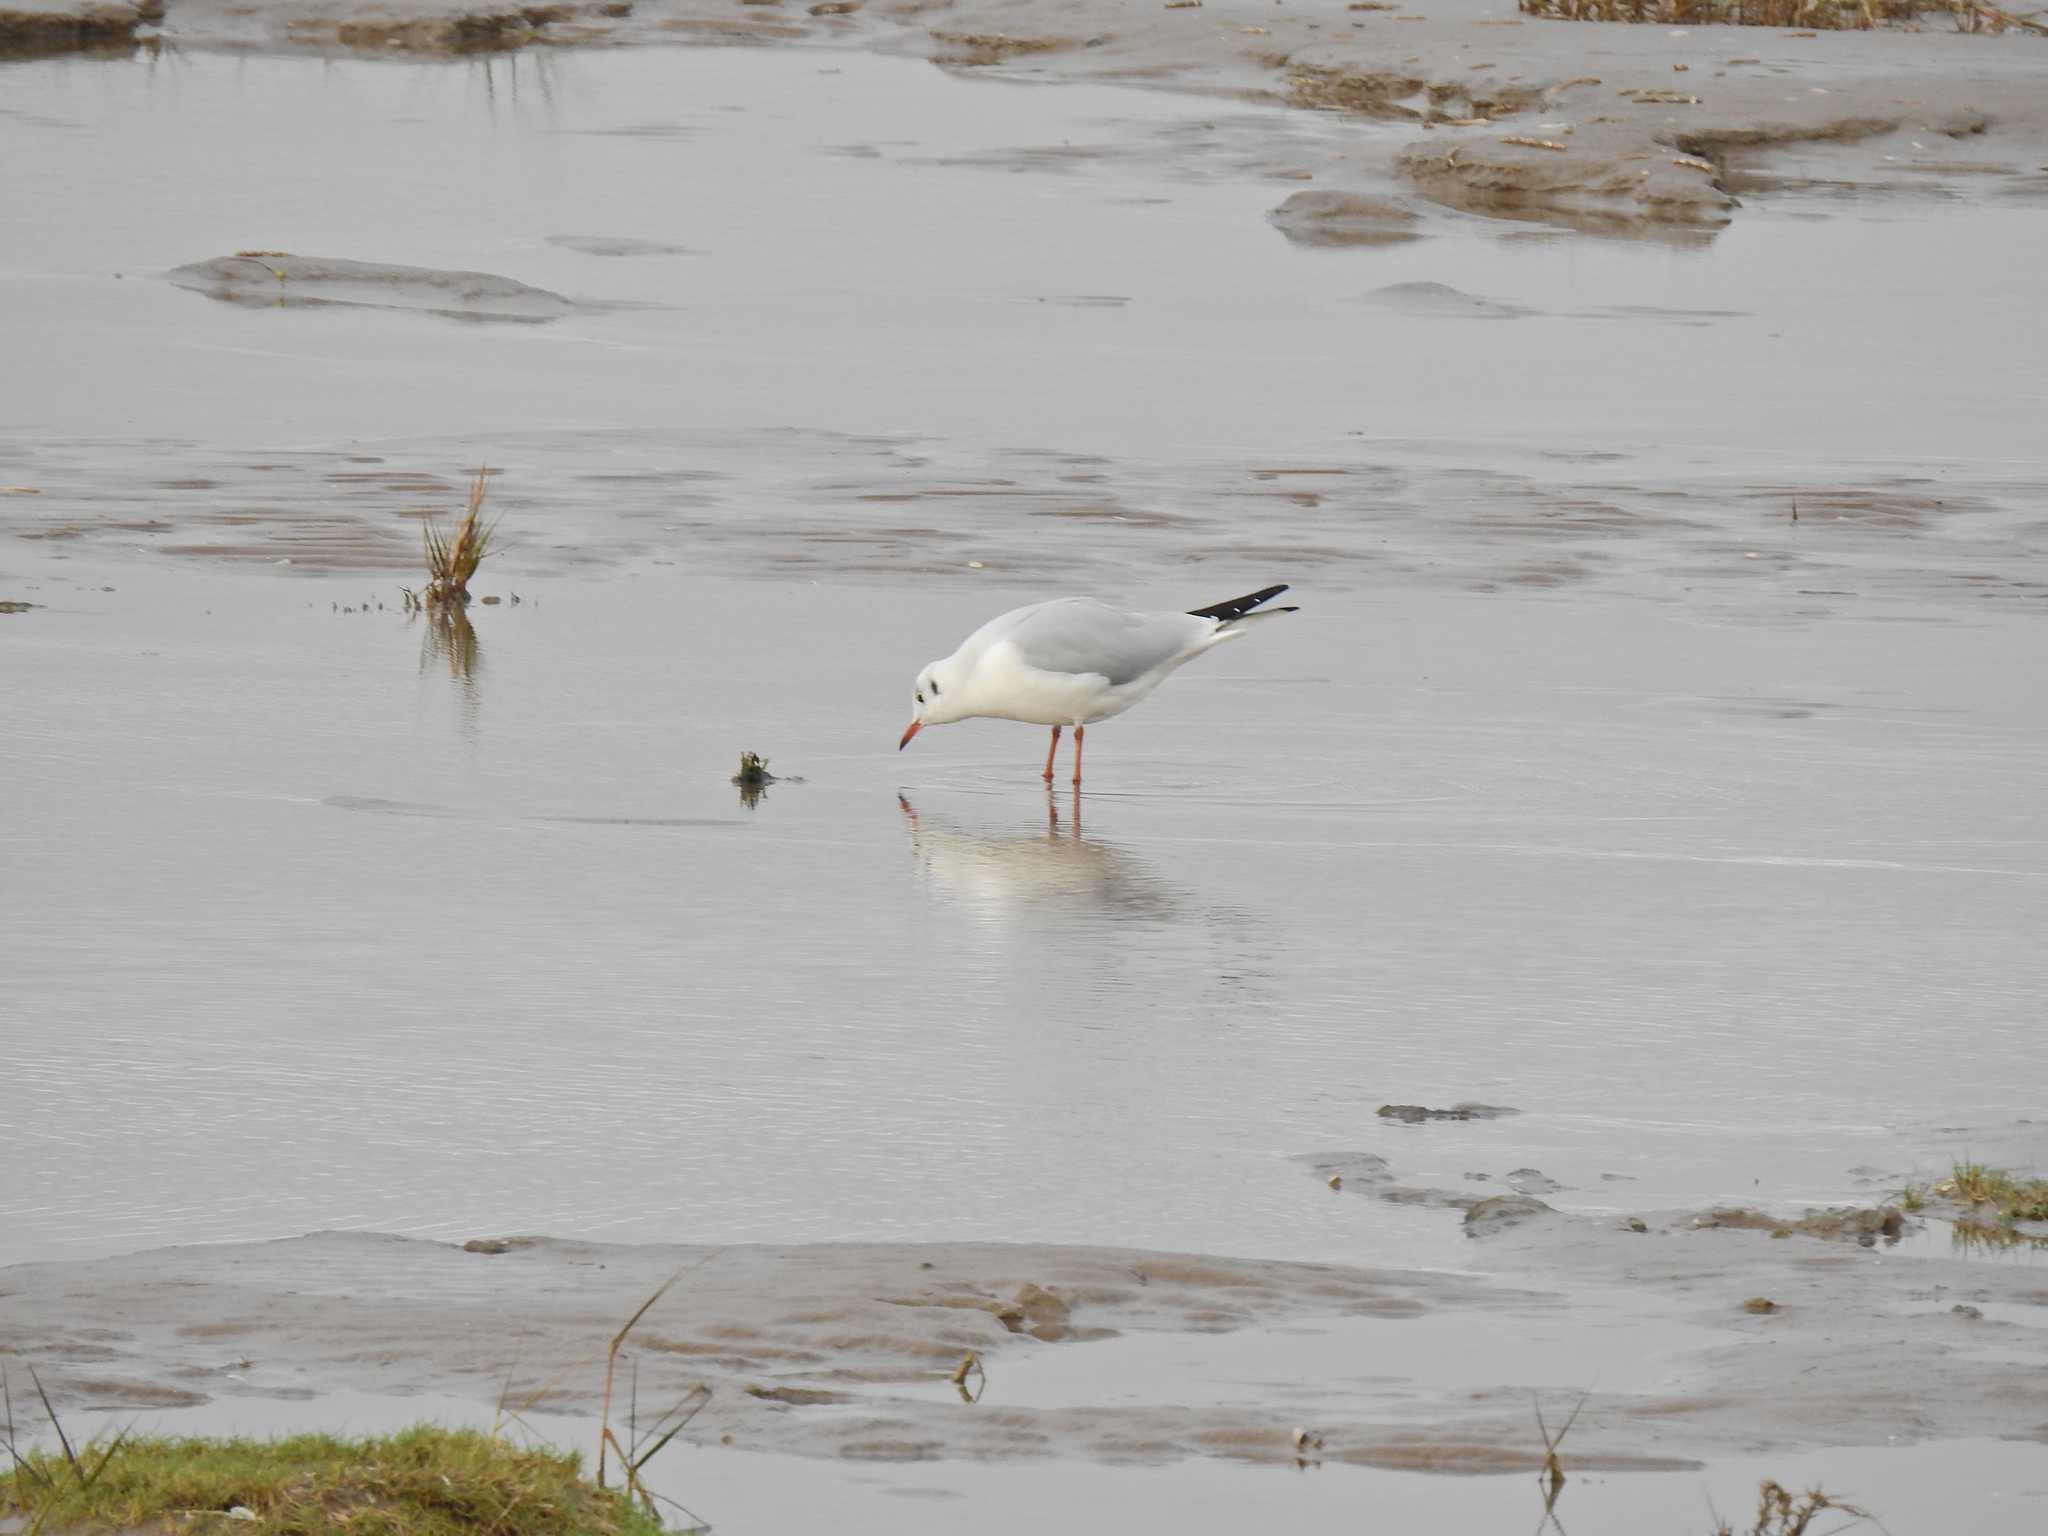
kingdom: Animalia
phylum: Chordata
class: Aves
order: Charadriiformes
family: Laridae
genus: Chroicocephalus
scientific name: Chroicocephalus ridibundus
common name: Black-headed gull
